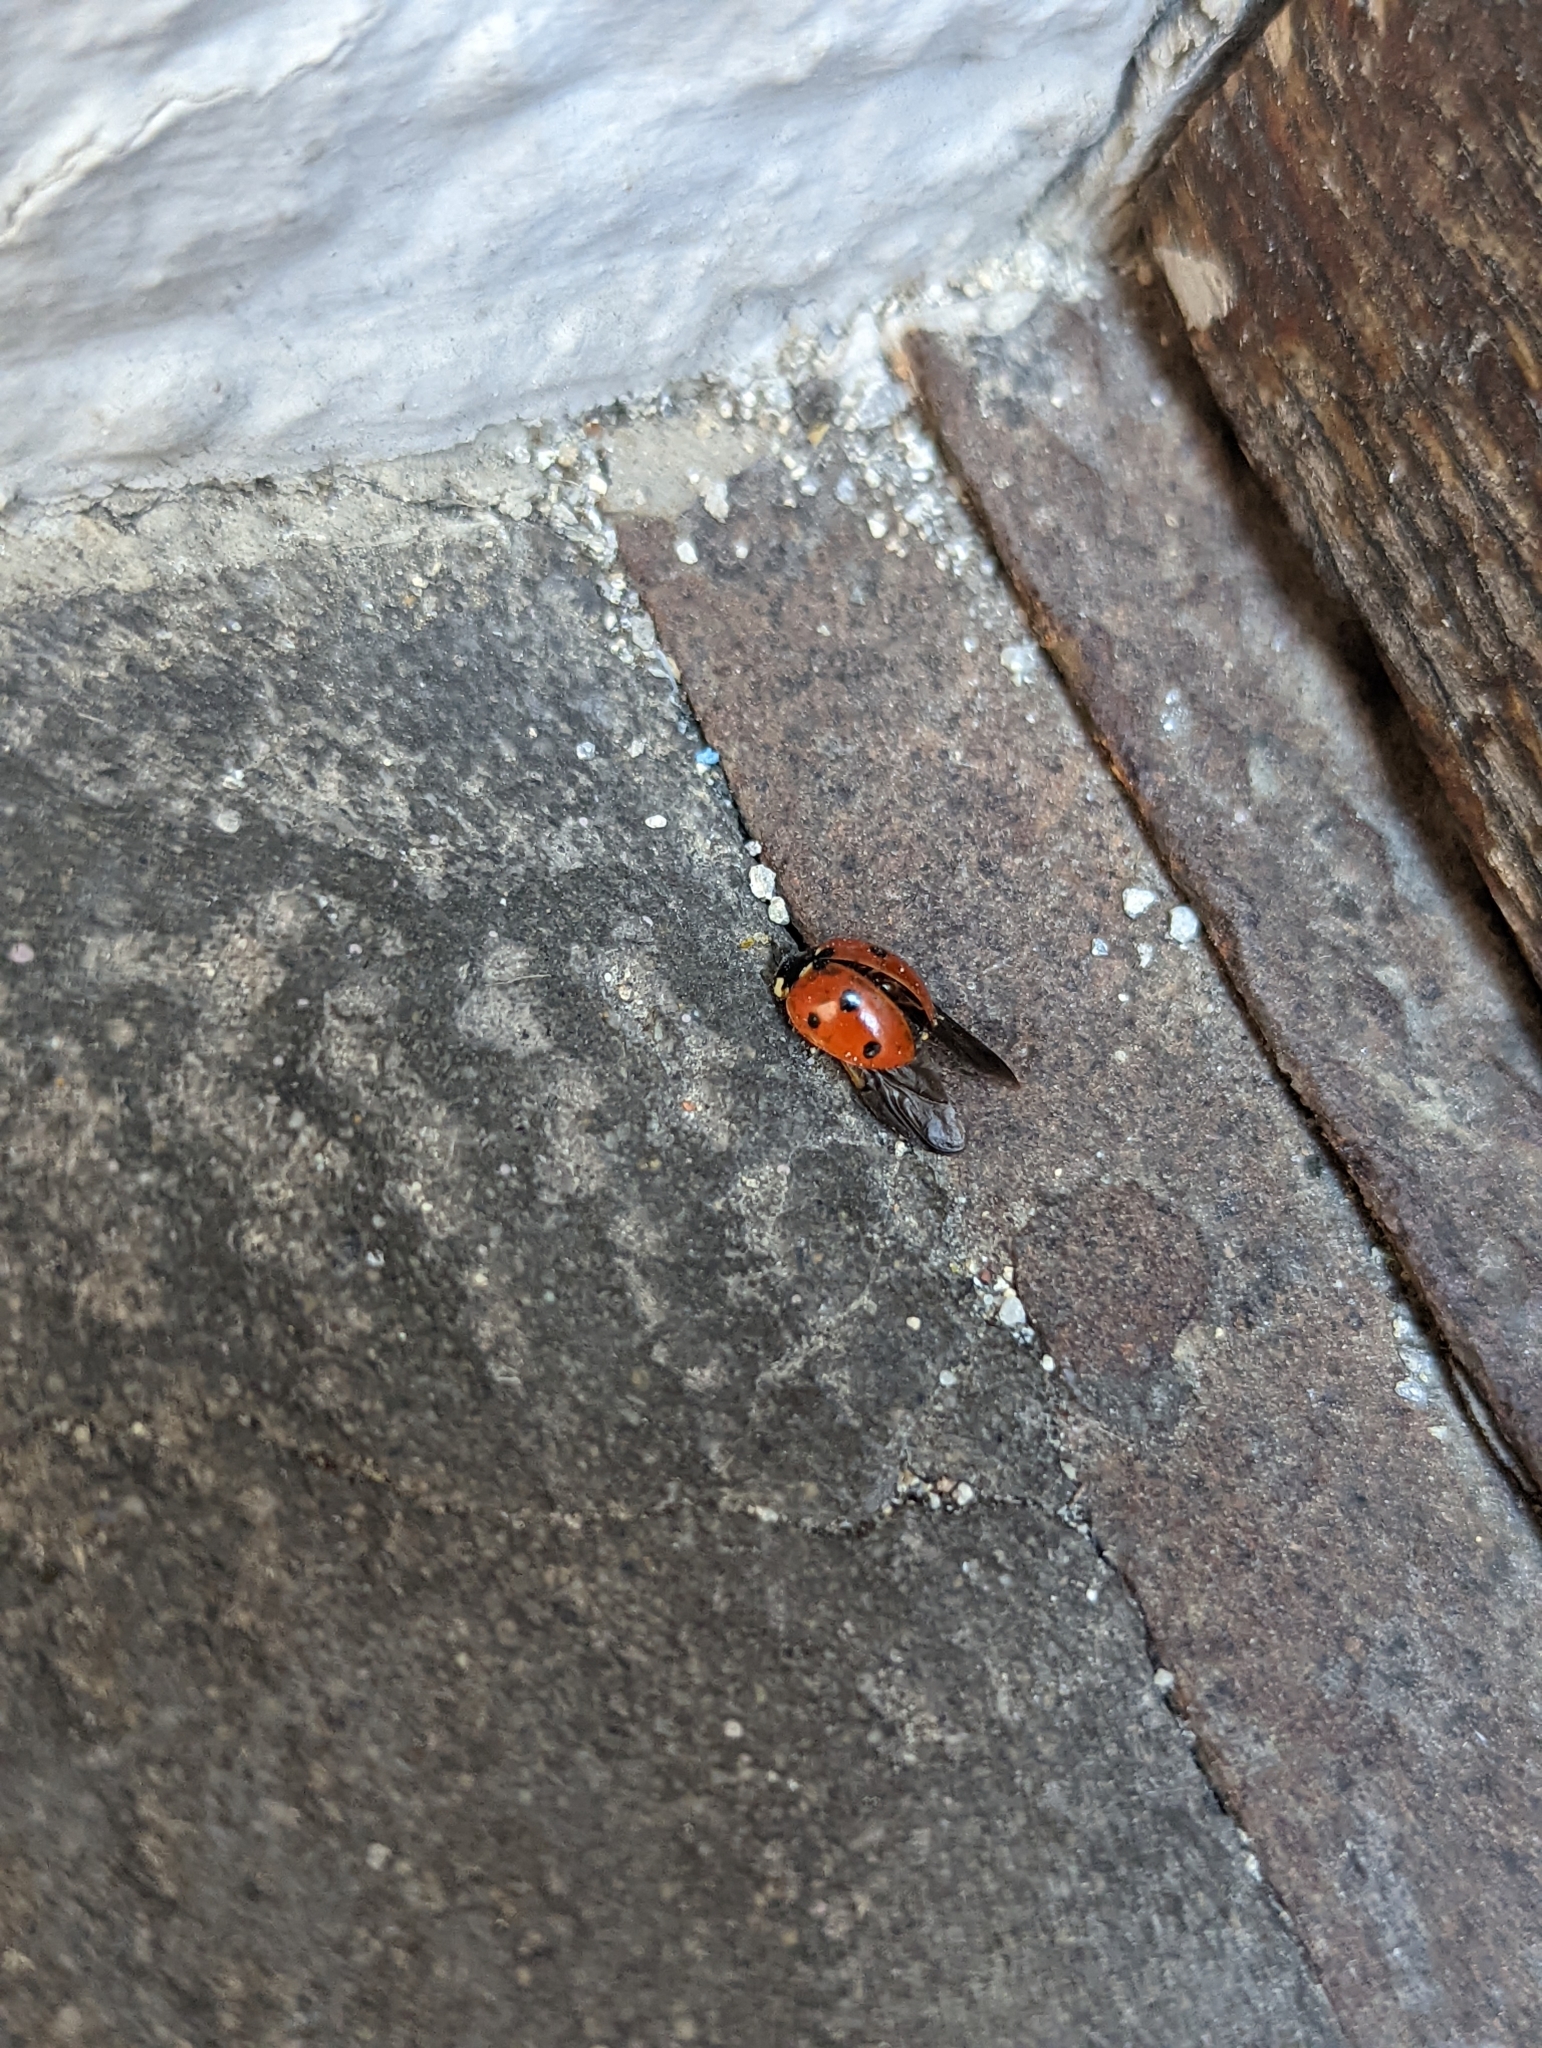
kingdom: Animalia
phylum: Arthropoda
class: Insecta
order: Coleoptera
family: Coccinellidae
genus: Coccinella
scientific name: Coccinella septempunctata
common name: Sevenspotted lady beetle
